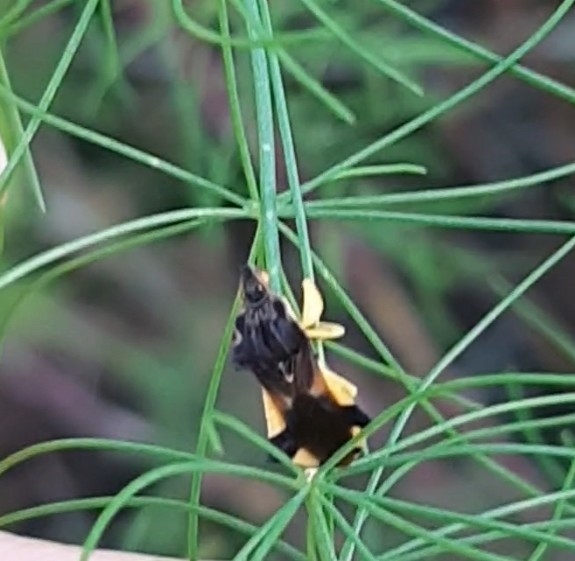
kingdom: Animalia
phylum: Arthropoda
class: Insecta
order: Hemiptera
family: Reduviidae
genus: Phymata
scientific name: Phymata pennsylvanica
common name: Pennsylvania ambush bug
